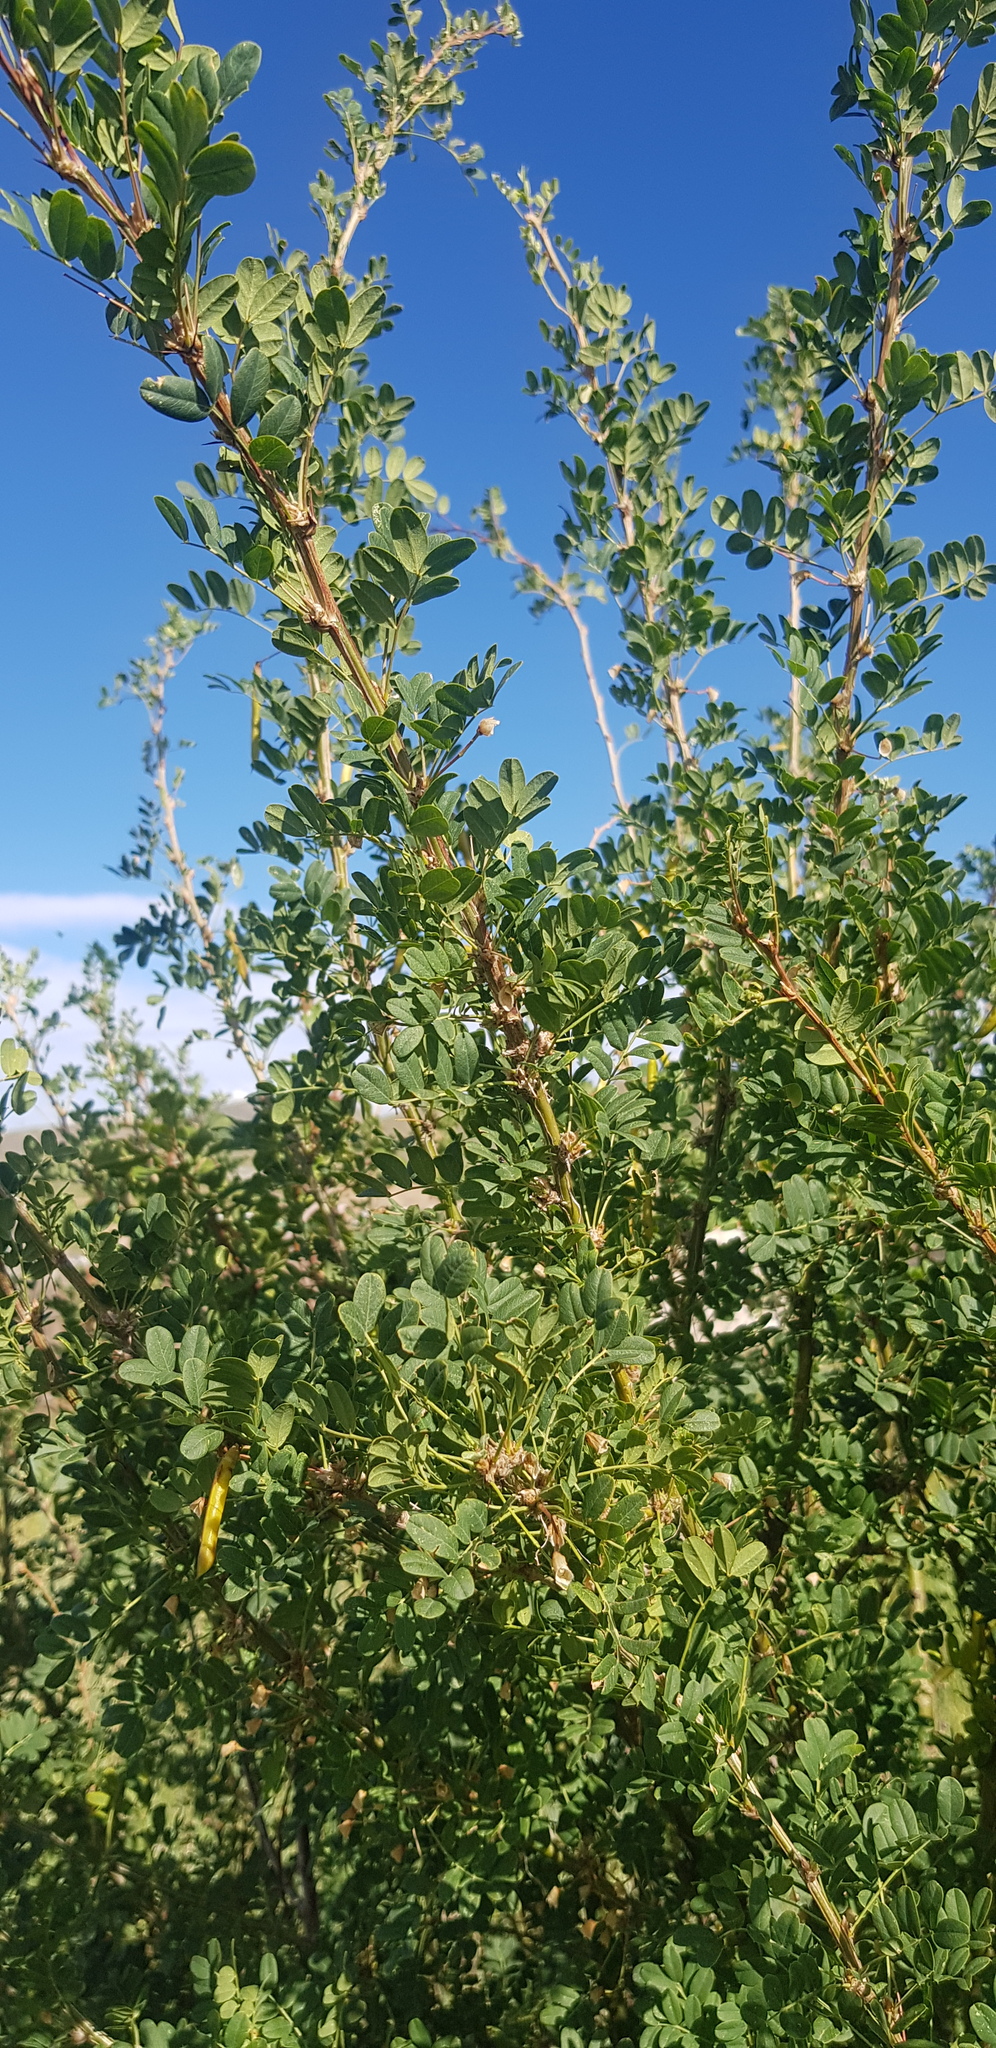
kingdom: Plantae
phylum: Tracheophyta
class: Magnoliopsida
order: Fabales
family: Fabaceae
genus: Caragana
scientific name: Caragana arborescens
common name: Siberian peashrub
